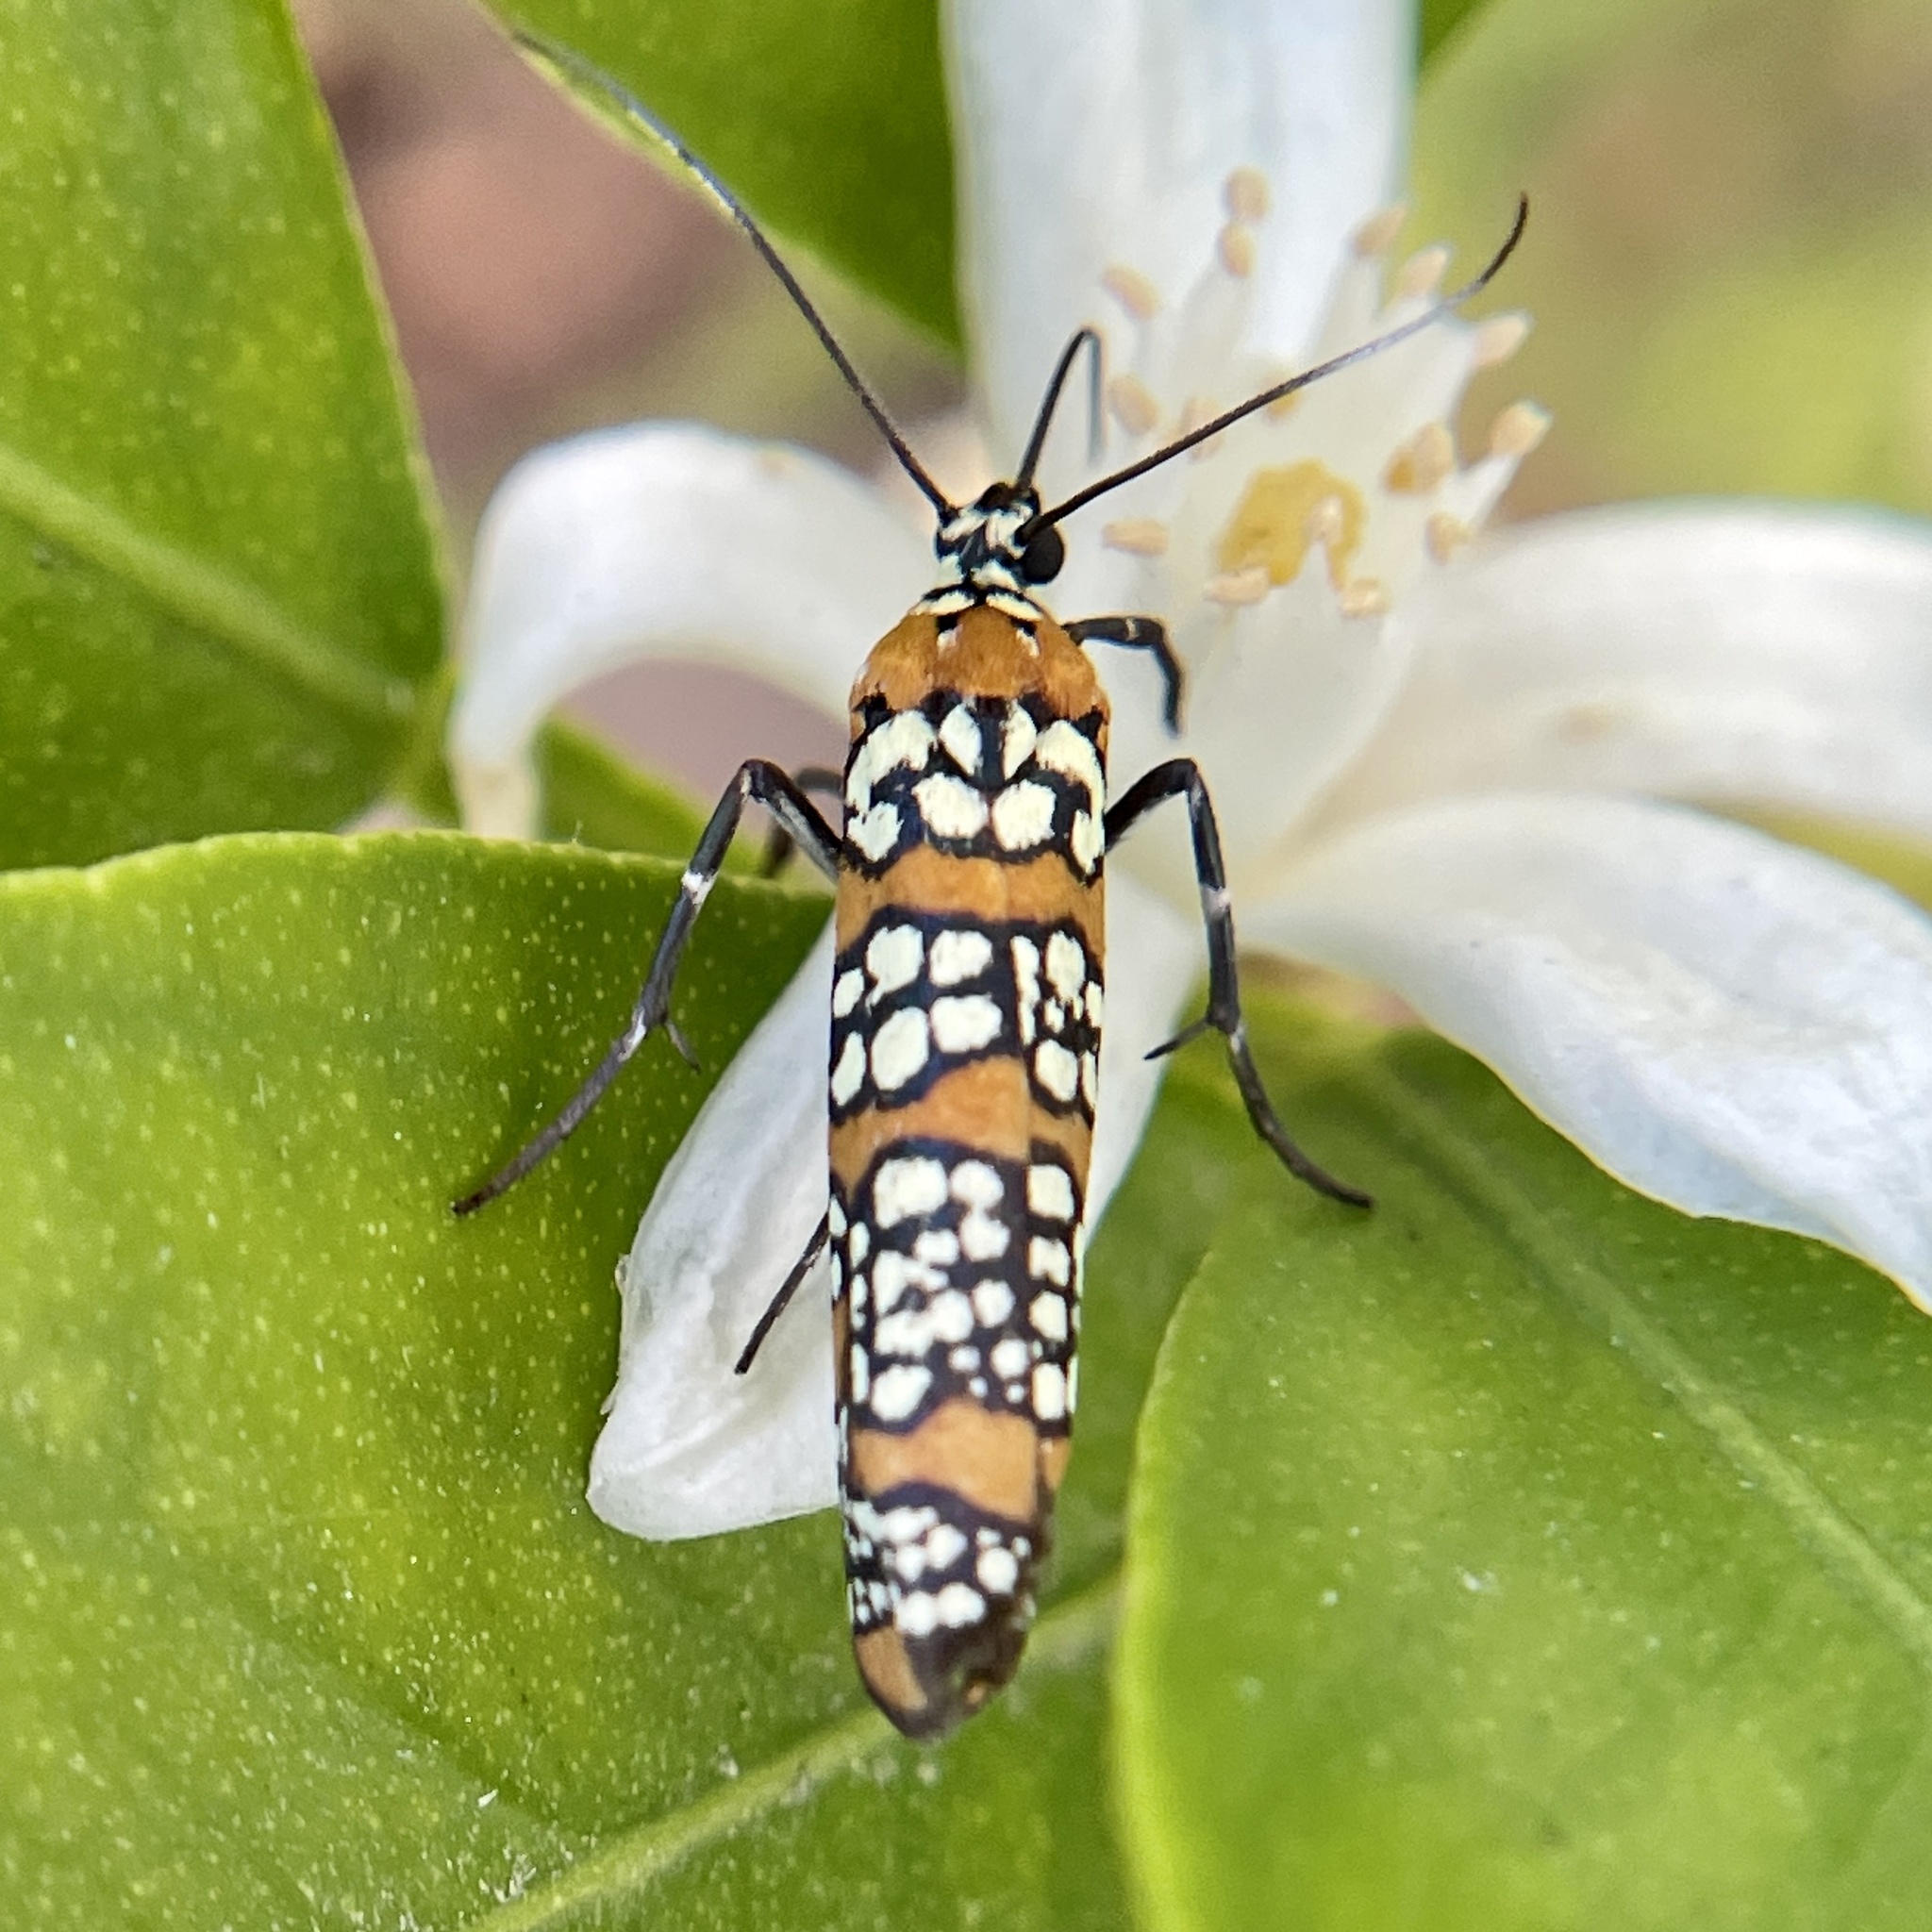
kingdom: Animalia
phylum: Arthropoda
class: Insecta
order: Lepidoptera
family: Attevidae
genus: Atteva
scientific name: Atteva punctella
